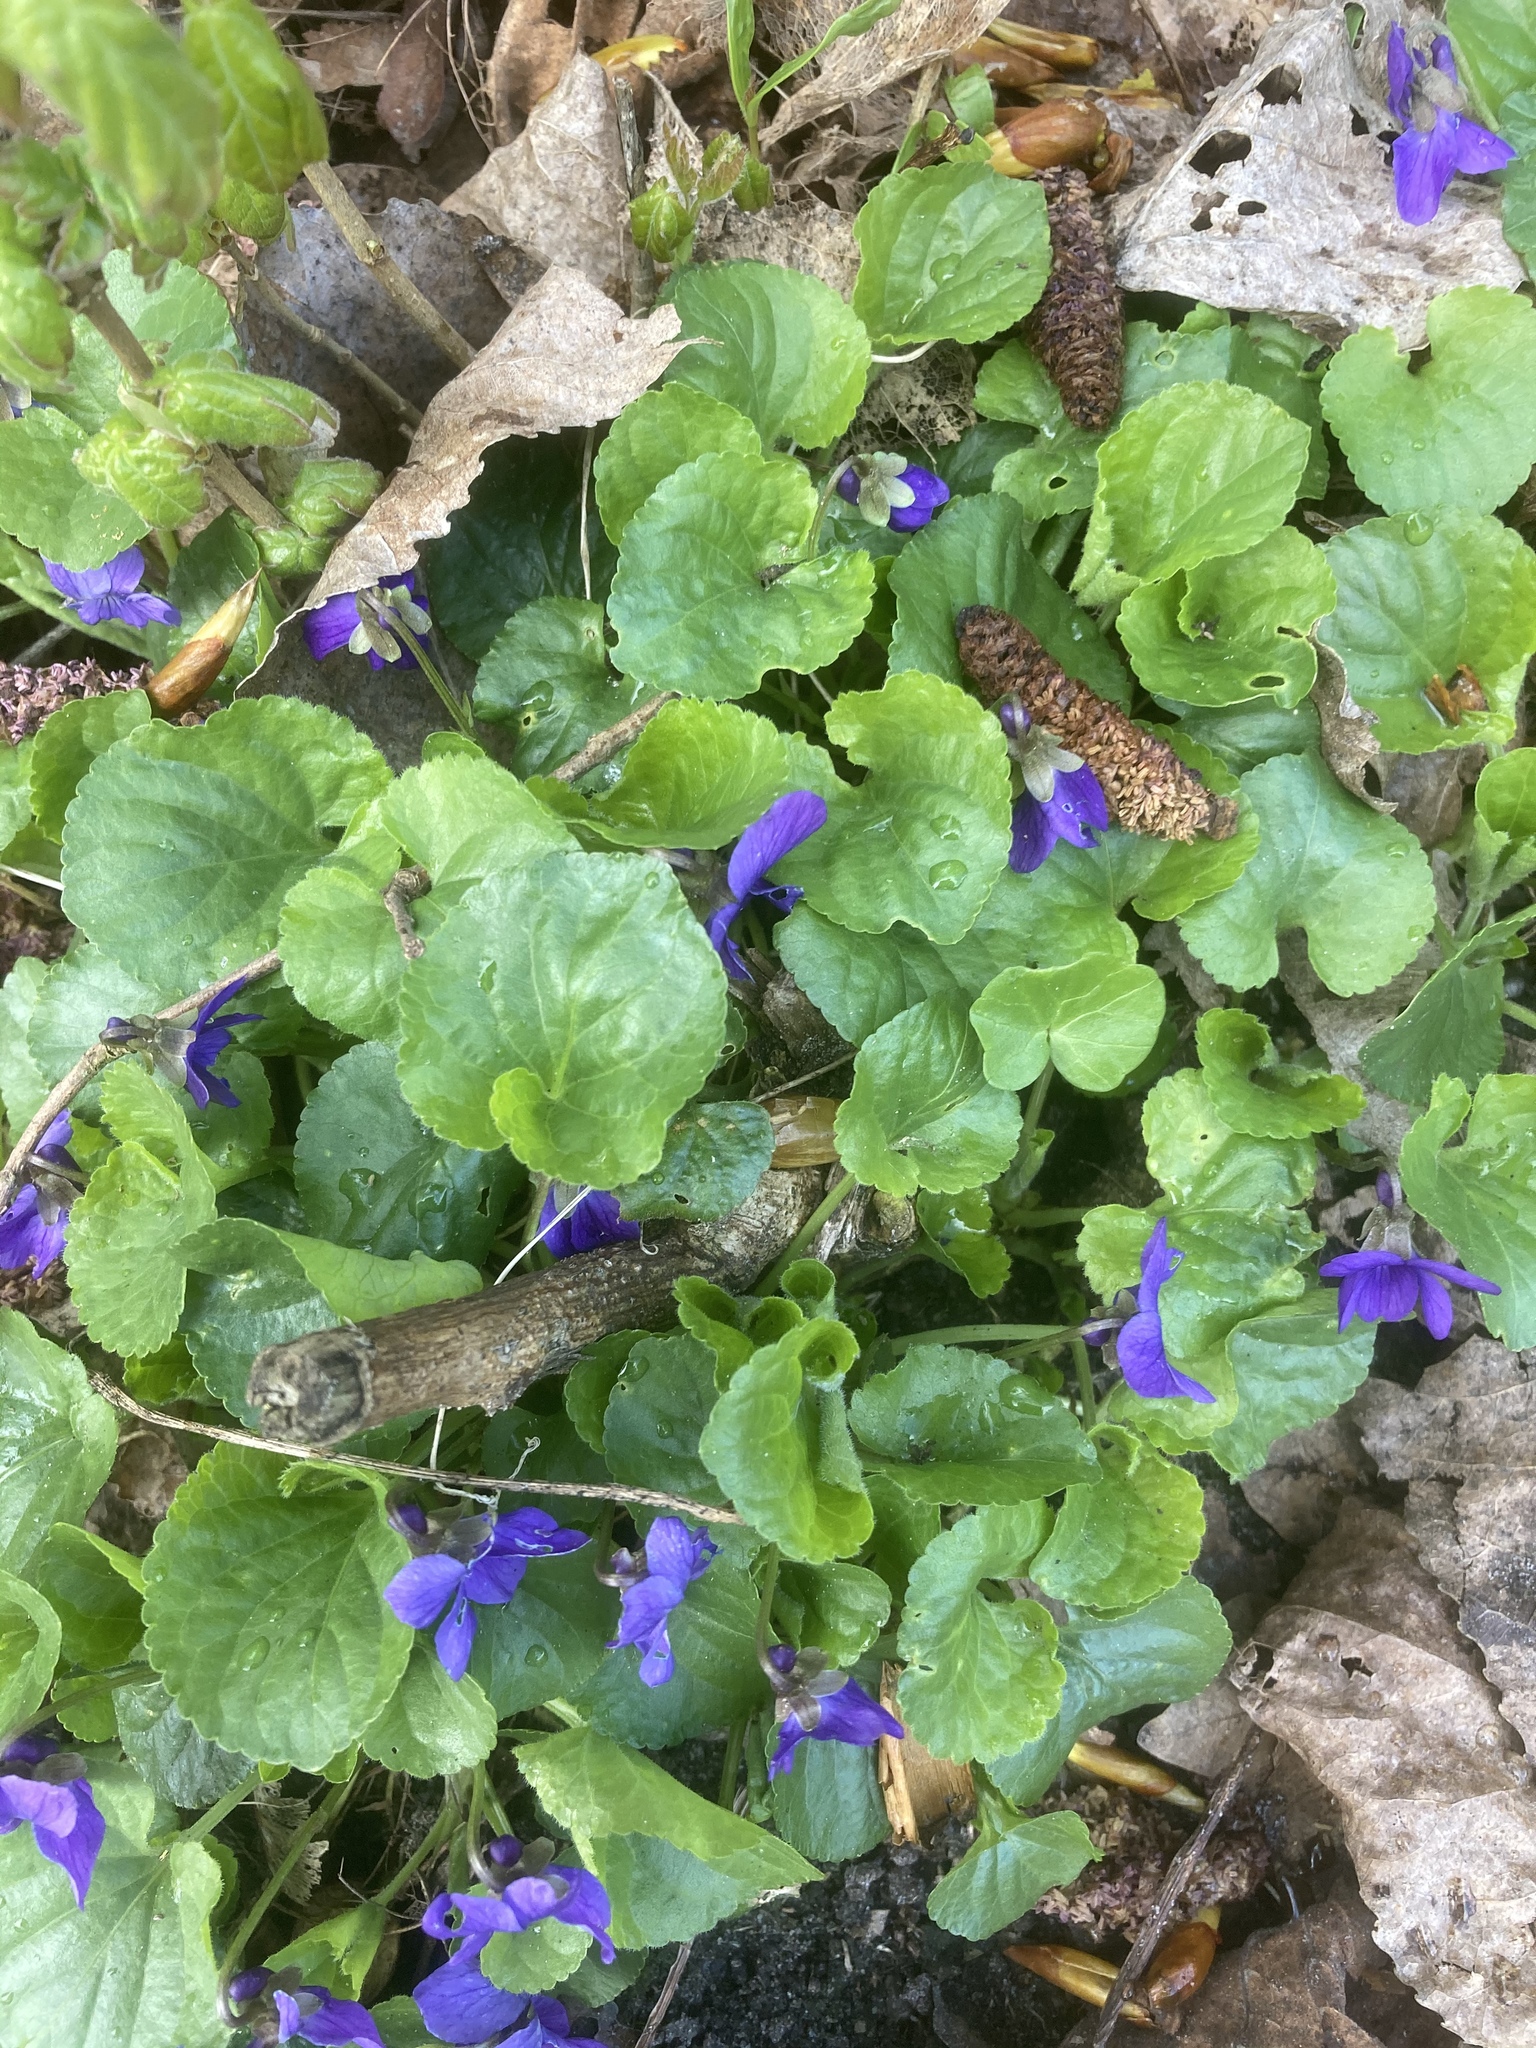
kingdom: Plantae
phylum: Tracheophyta
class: Magnoliopsida
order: Malpighiales
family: Violaceae
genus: Viola
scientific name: Viola odorata
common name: Sweet violet
